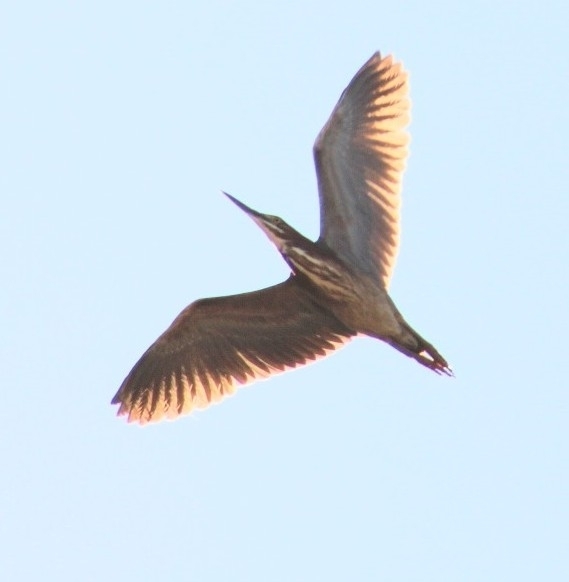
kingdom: Animalia
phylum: Chordata
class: Aves
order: Pelecaniformes
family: Ardeidae
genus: Butorides
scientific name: Butorides virescens
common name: Green heron
